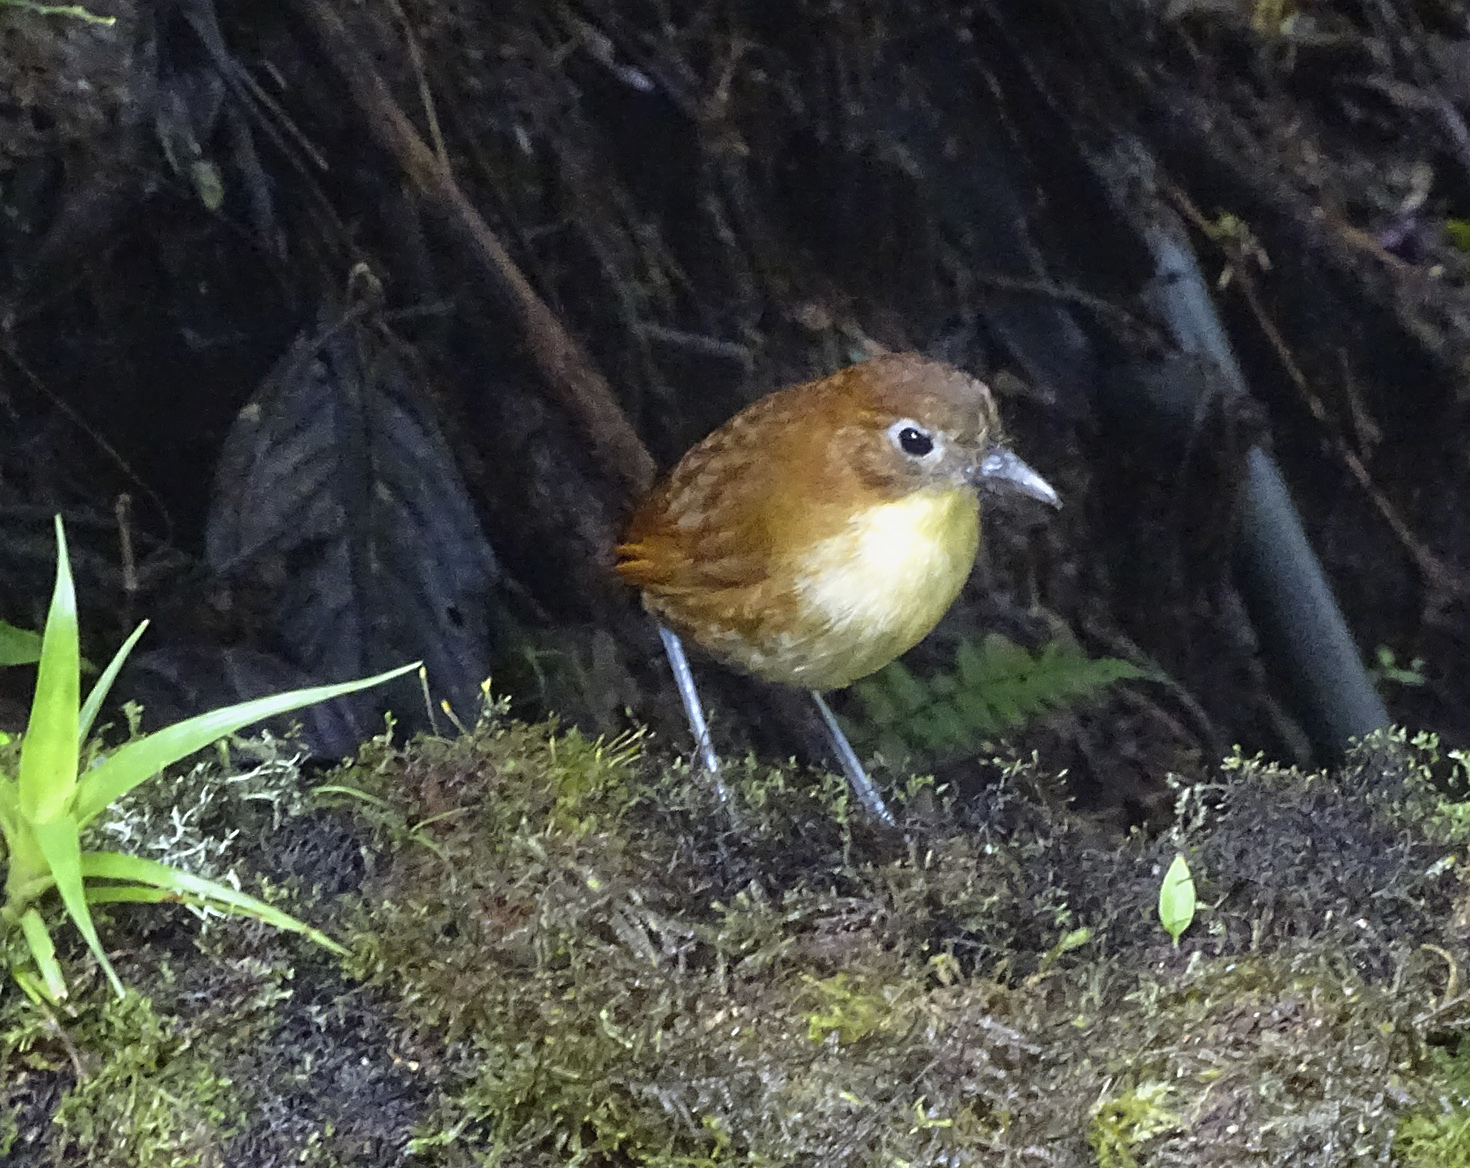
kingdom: Animalia
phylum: Chordata
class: Aves
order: Passeriformes
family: Grallariidae
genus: Grallaria
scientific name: Grallaria flavotincta
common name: Yellow-breasted antpitta
